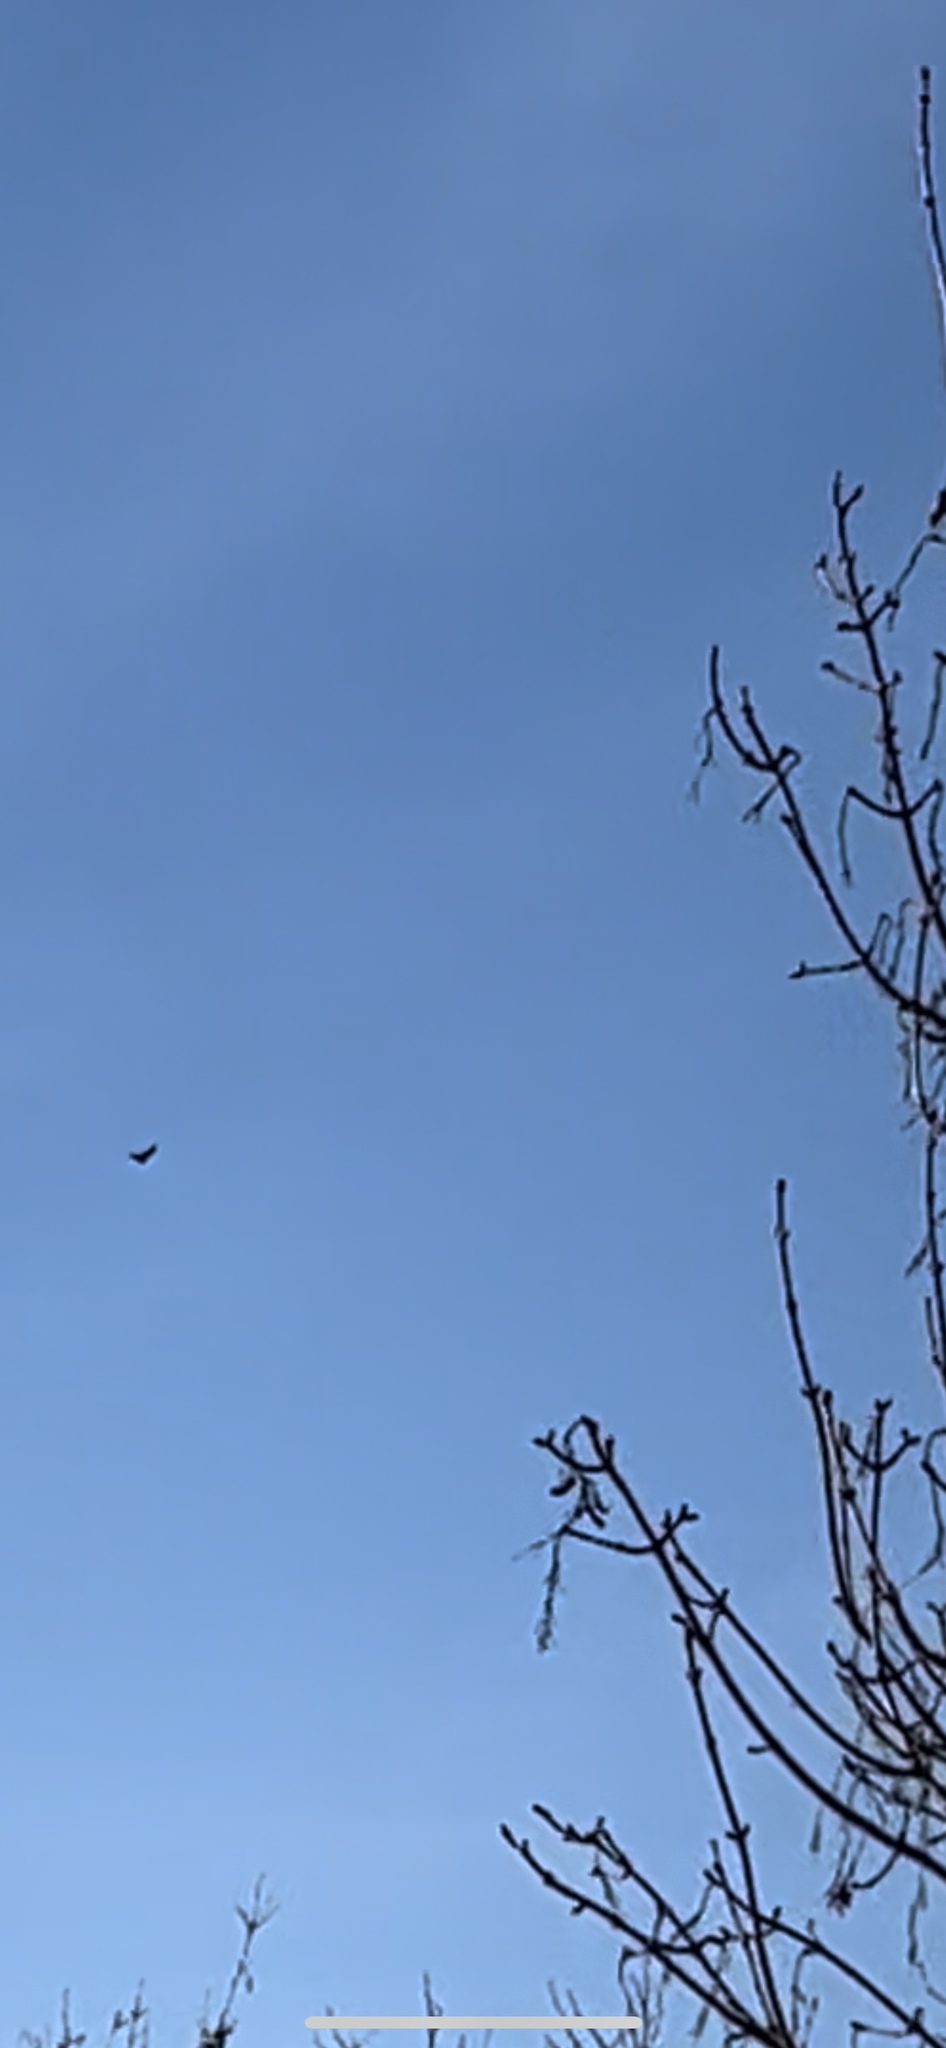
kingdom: Animalia
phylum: Chordata
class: Aves
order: Accipitriformes
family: Accipitridae
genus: Milvus
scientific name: Milvus milvus
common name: Red kite
